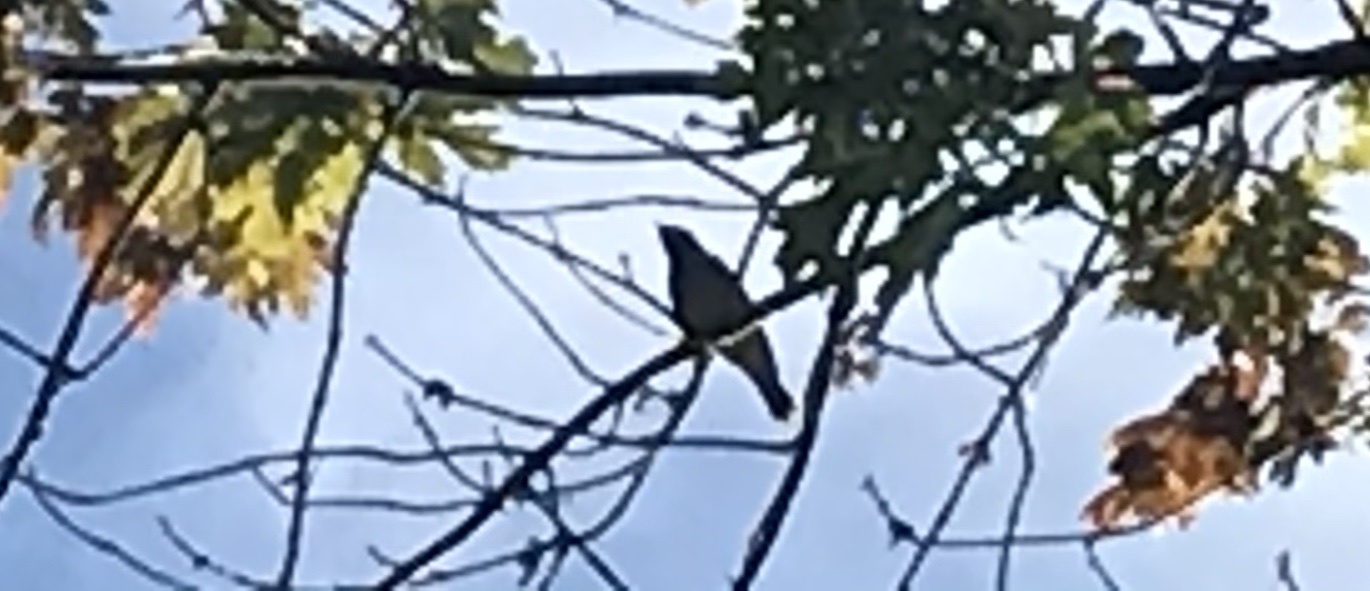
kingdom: Animalia
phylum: Chordata
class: Aves
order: Passeriformes
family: Bombycillidae
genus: Bombycilla
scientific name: Bombycilla cedrorum
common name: Cedar waxwing
